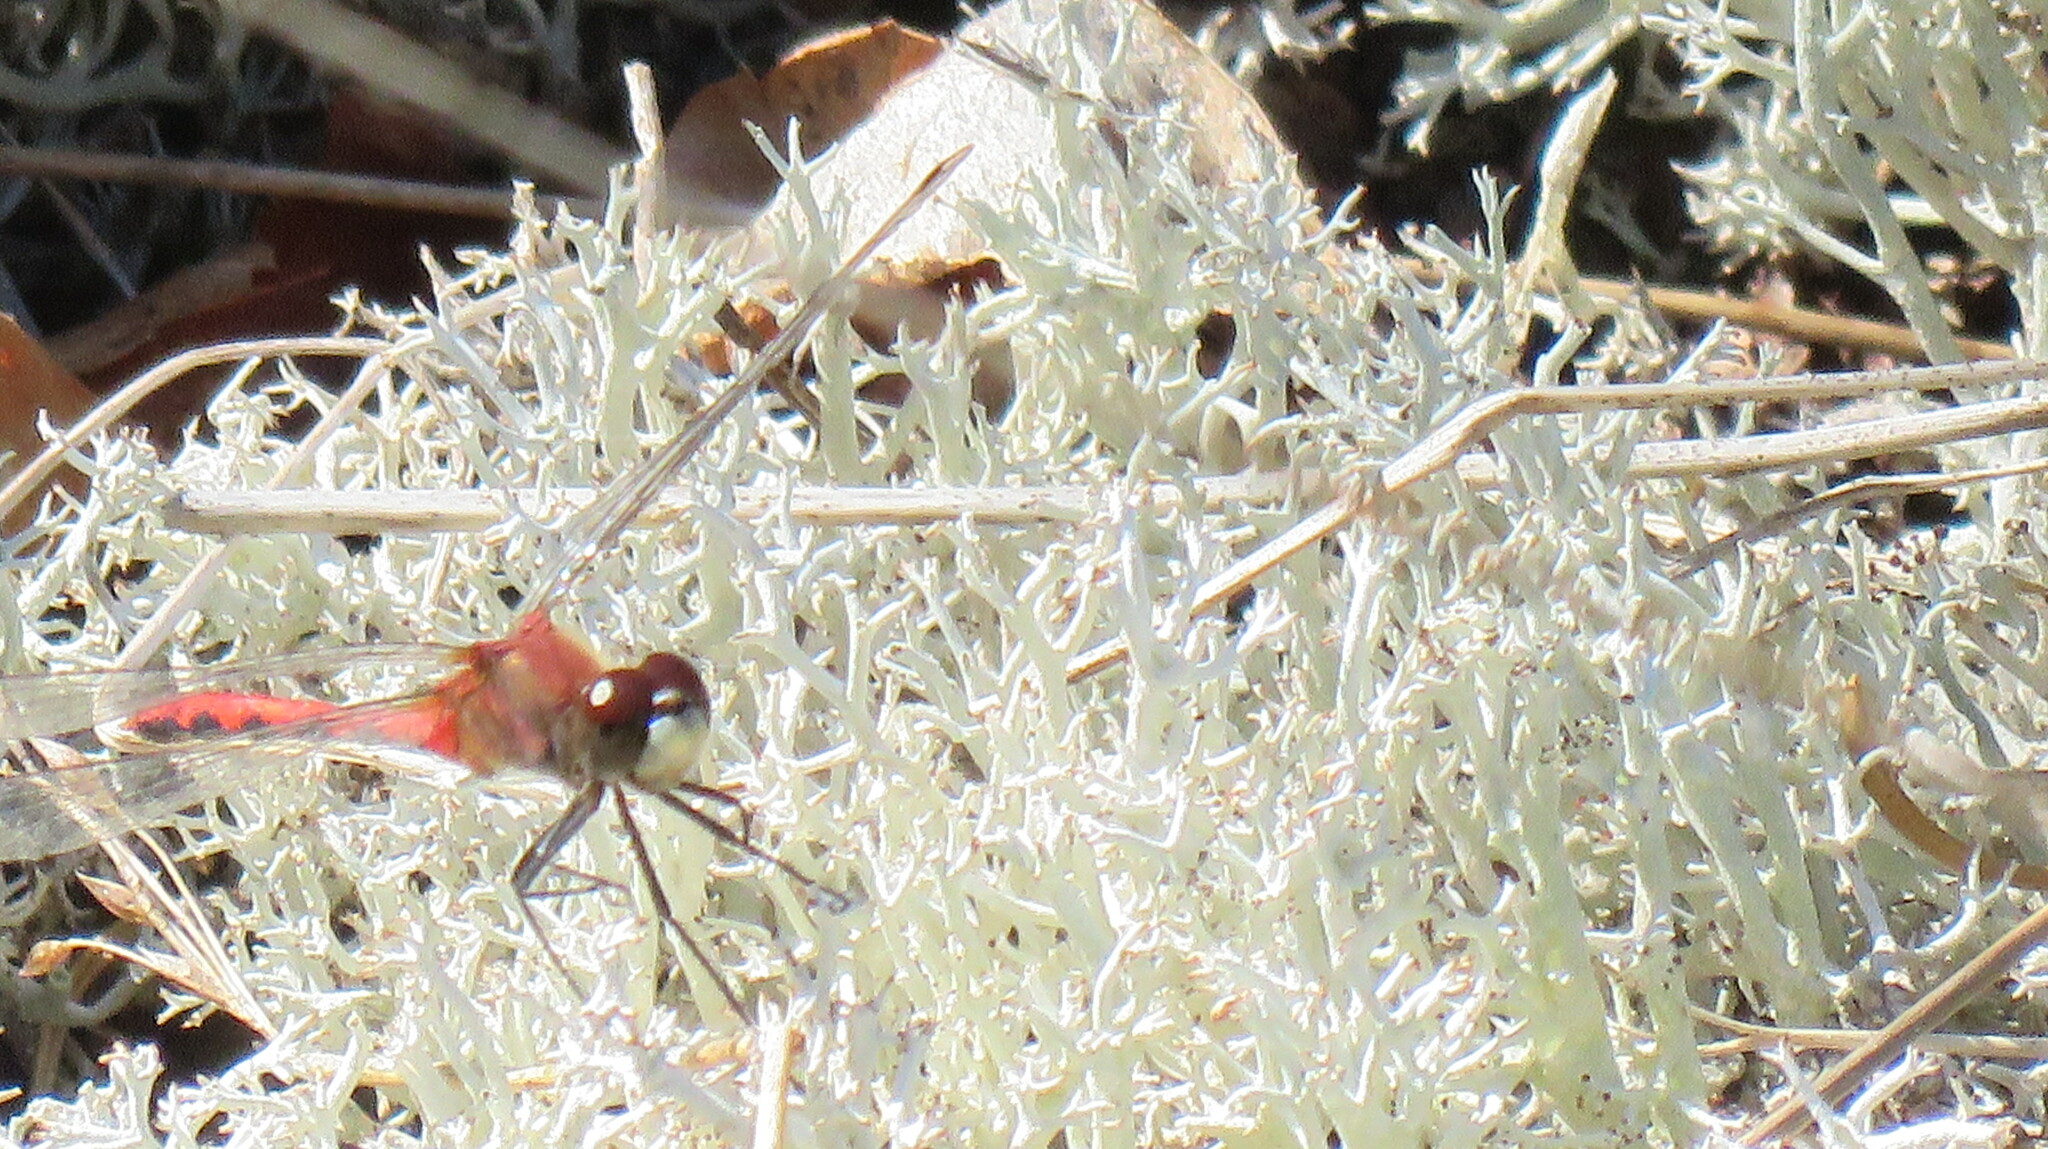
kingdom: Animalia
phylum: Arthropoda
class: Insecta
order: Odonata
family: Libellulidae
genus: Sympetrum
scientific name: Sympetrum obtrusum
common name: White-faced meadowhawk
